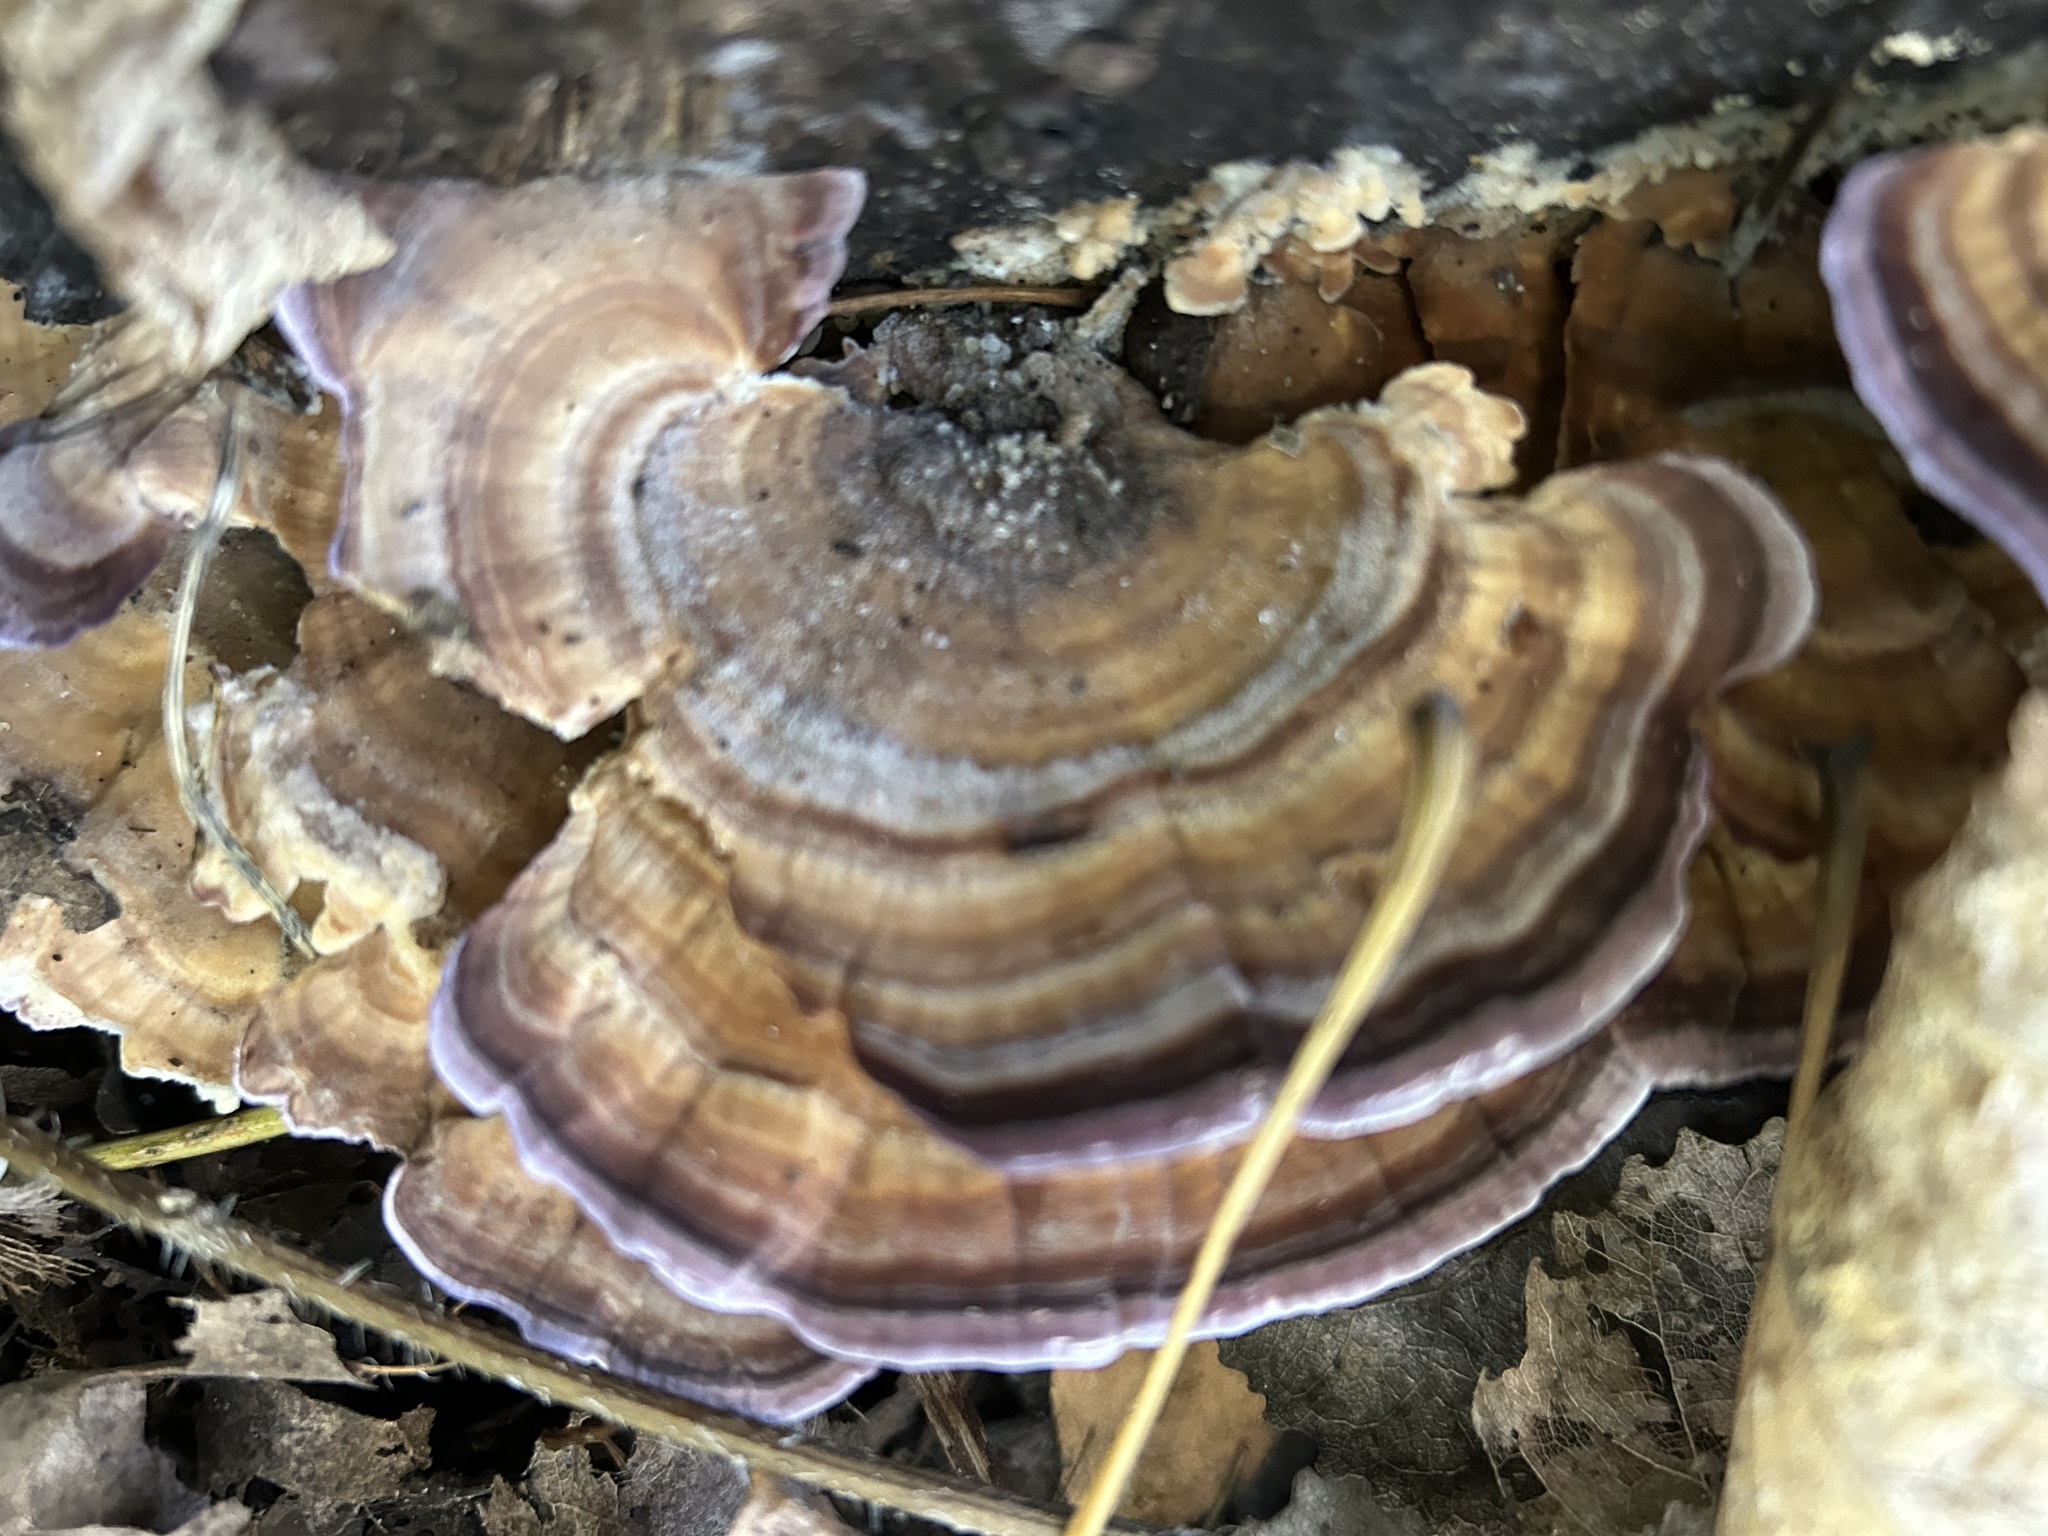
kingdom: Fungi
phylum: Basidiomycota
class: Agaricomycetes
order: Hymenochaetales
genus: Trichaptum
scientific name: Trichaptum biforme
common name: Violet-toothed polypore
